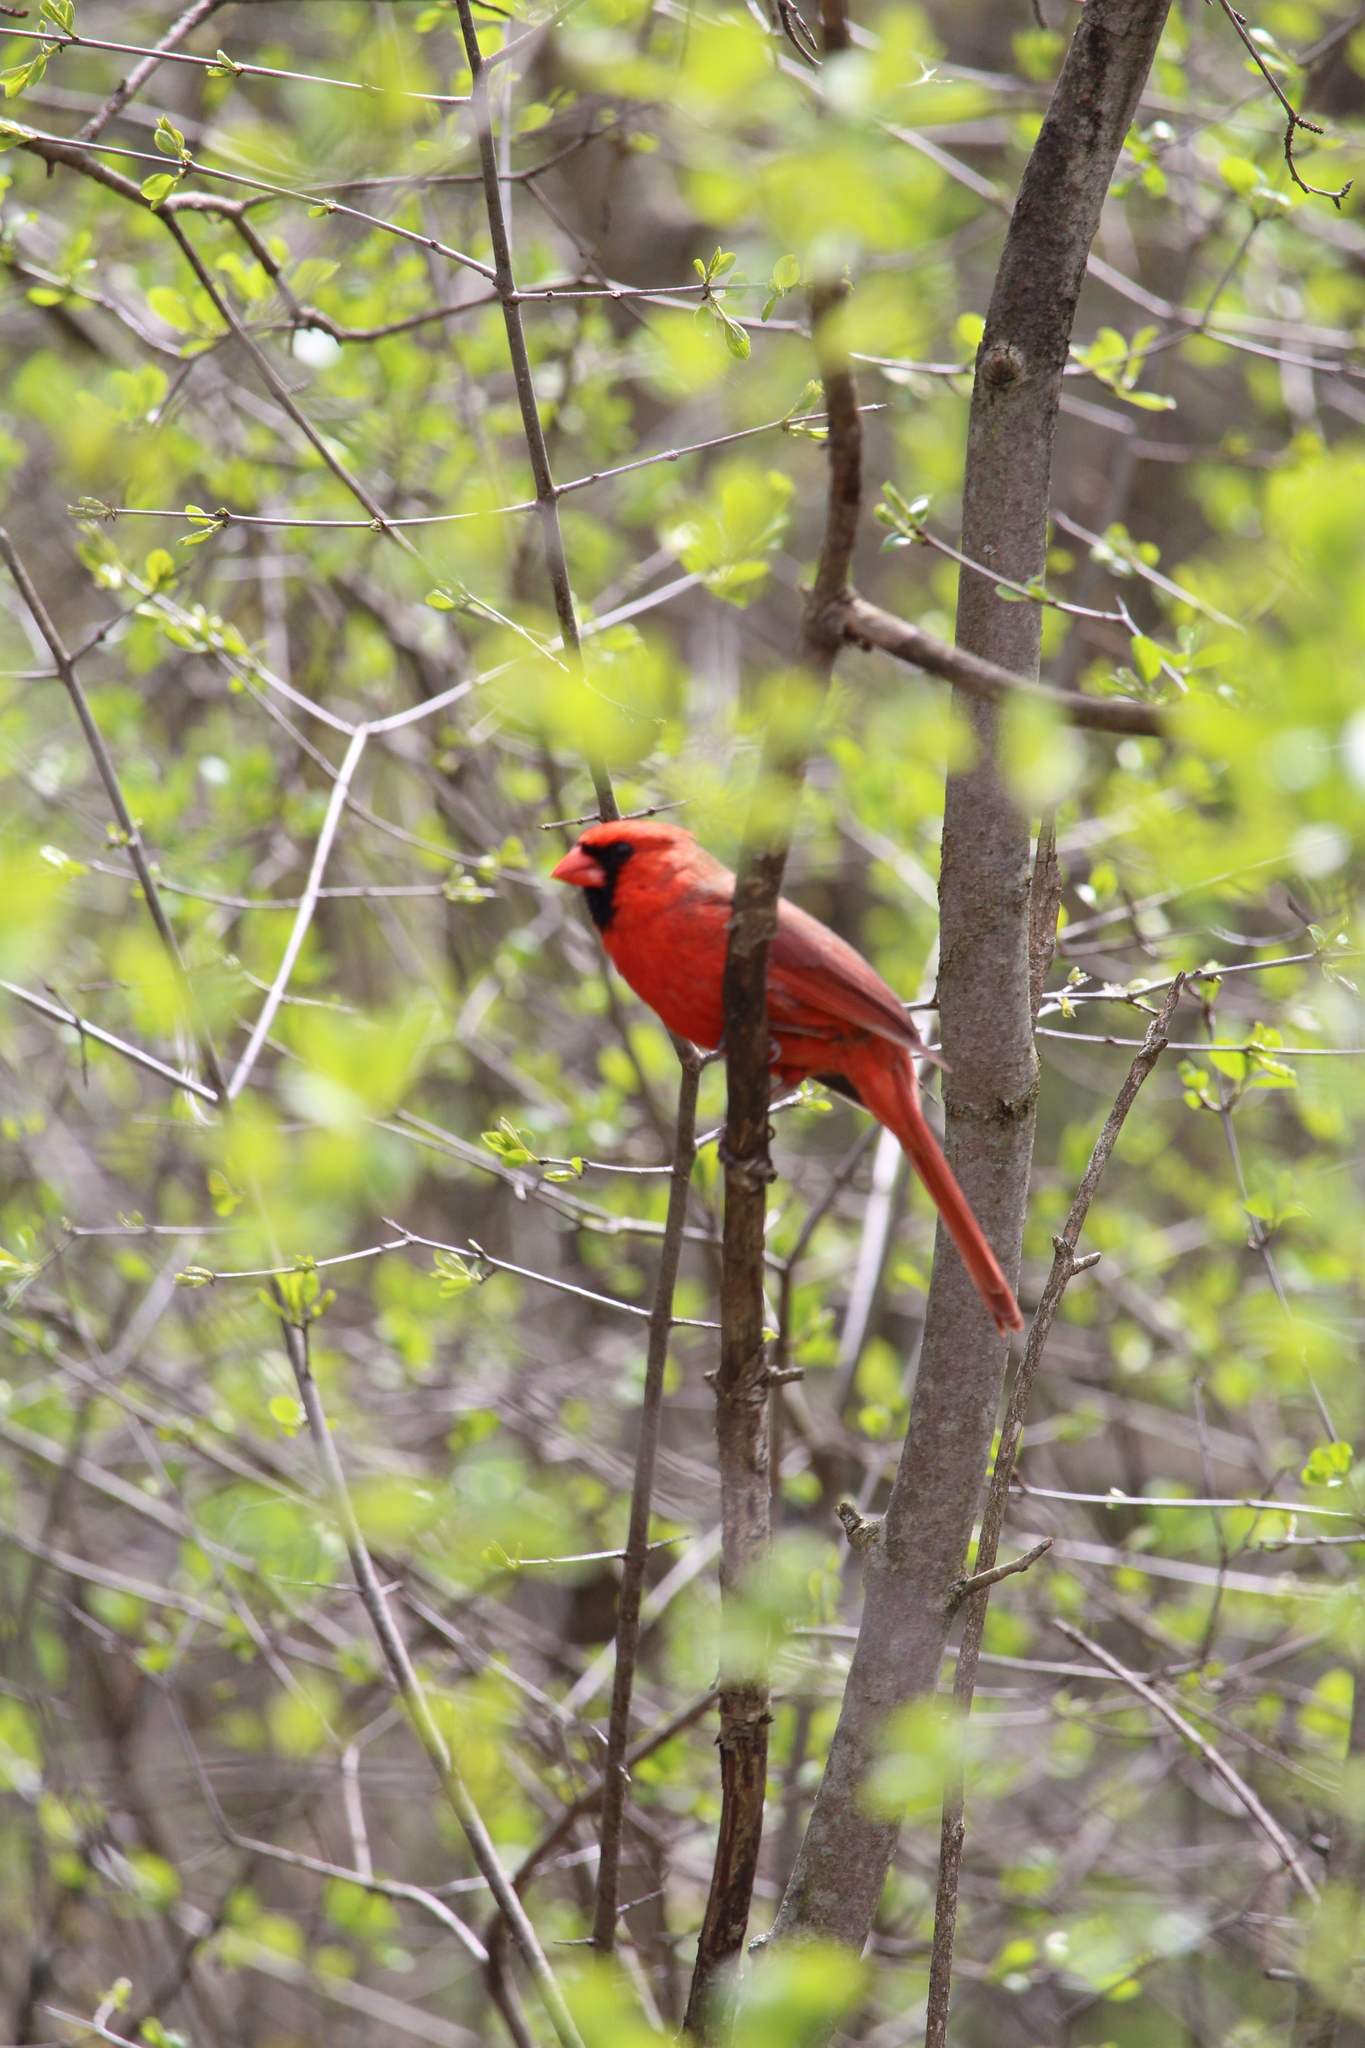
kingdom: Animalia
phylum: Chordata
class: Aves
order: Passeriformes
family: Cardinalidae
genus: Cardinalis
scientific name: Cardinalis cardinalis
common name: Northern cardinal
